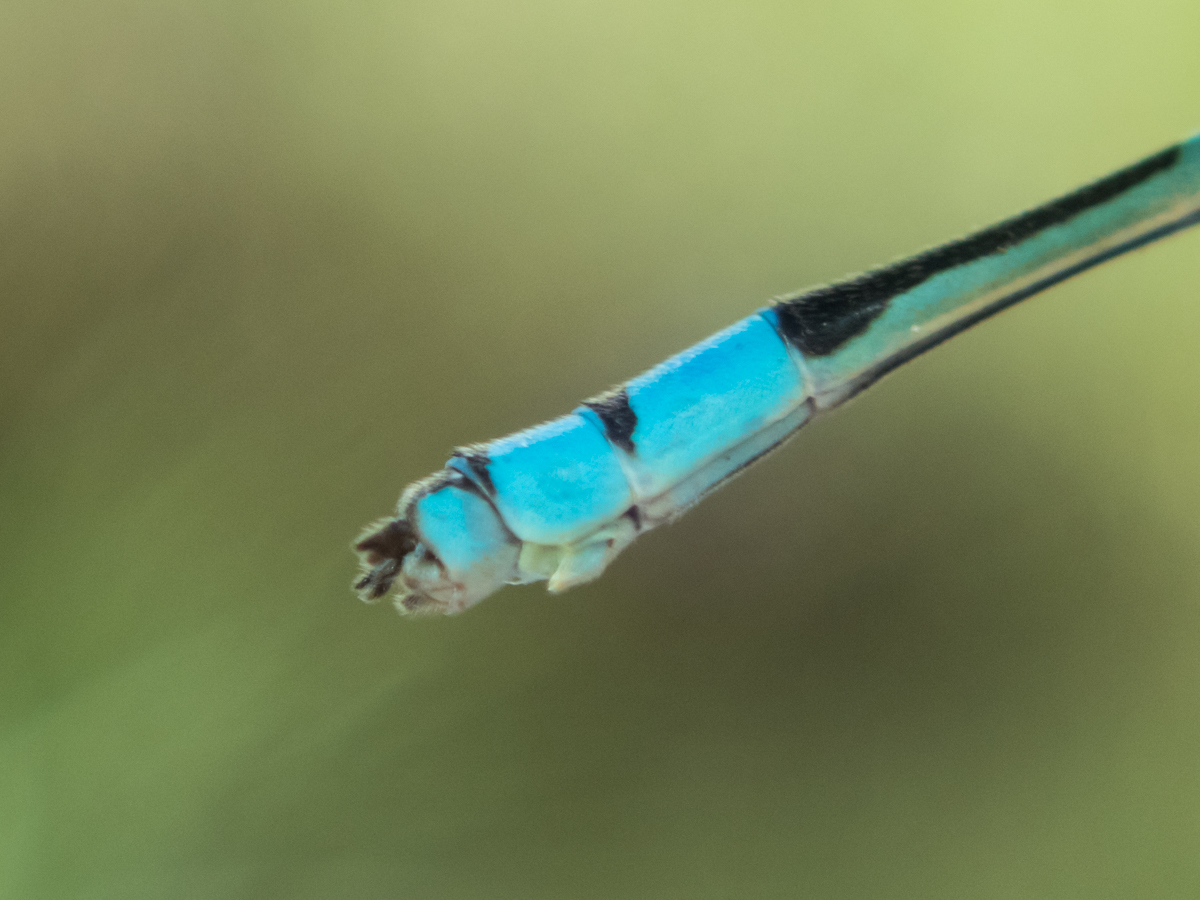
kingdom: Animalia
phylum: Arthropoda
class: Insecta
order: Odonata
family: Coenagrionidae
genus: Pseudagrion
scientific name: Pseudagrion microcephalum
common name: Blue riverdamsel
